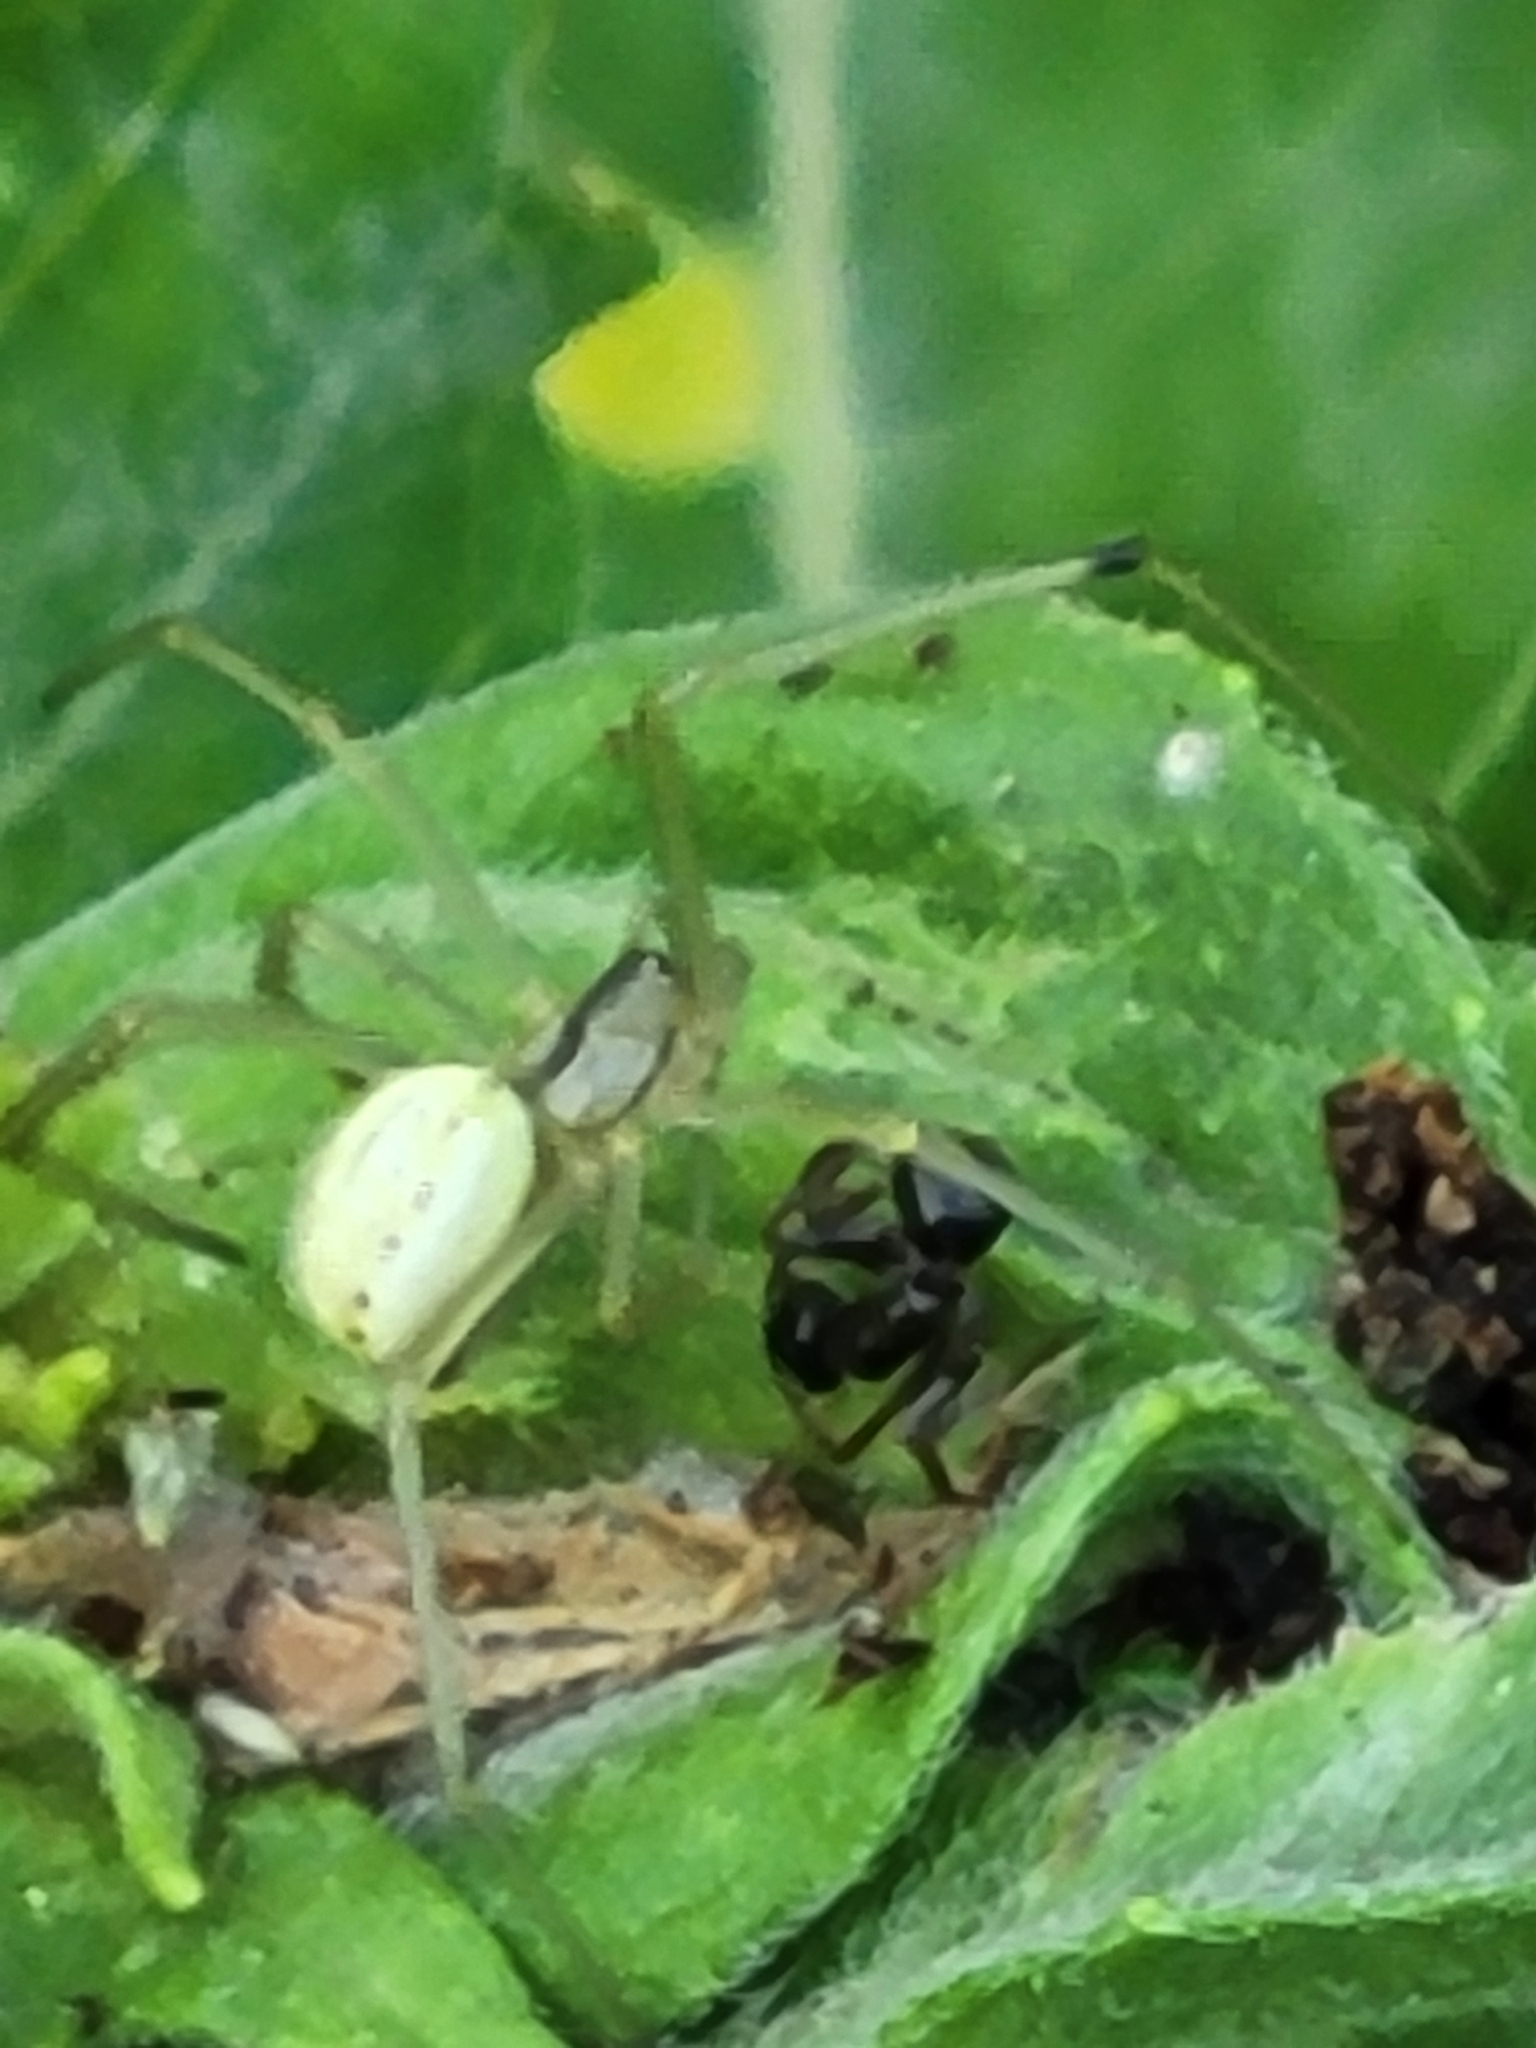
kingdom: Animalia
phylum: Arthropoda
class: Arachnida
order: Araneae
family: Theridiidae
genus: Enoplognatha
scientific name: Enoplognatha ovata
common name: Common candy-striped spider
